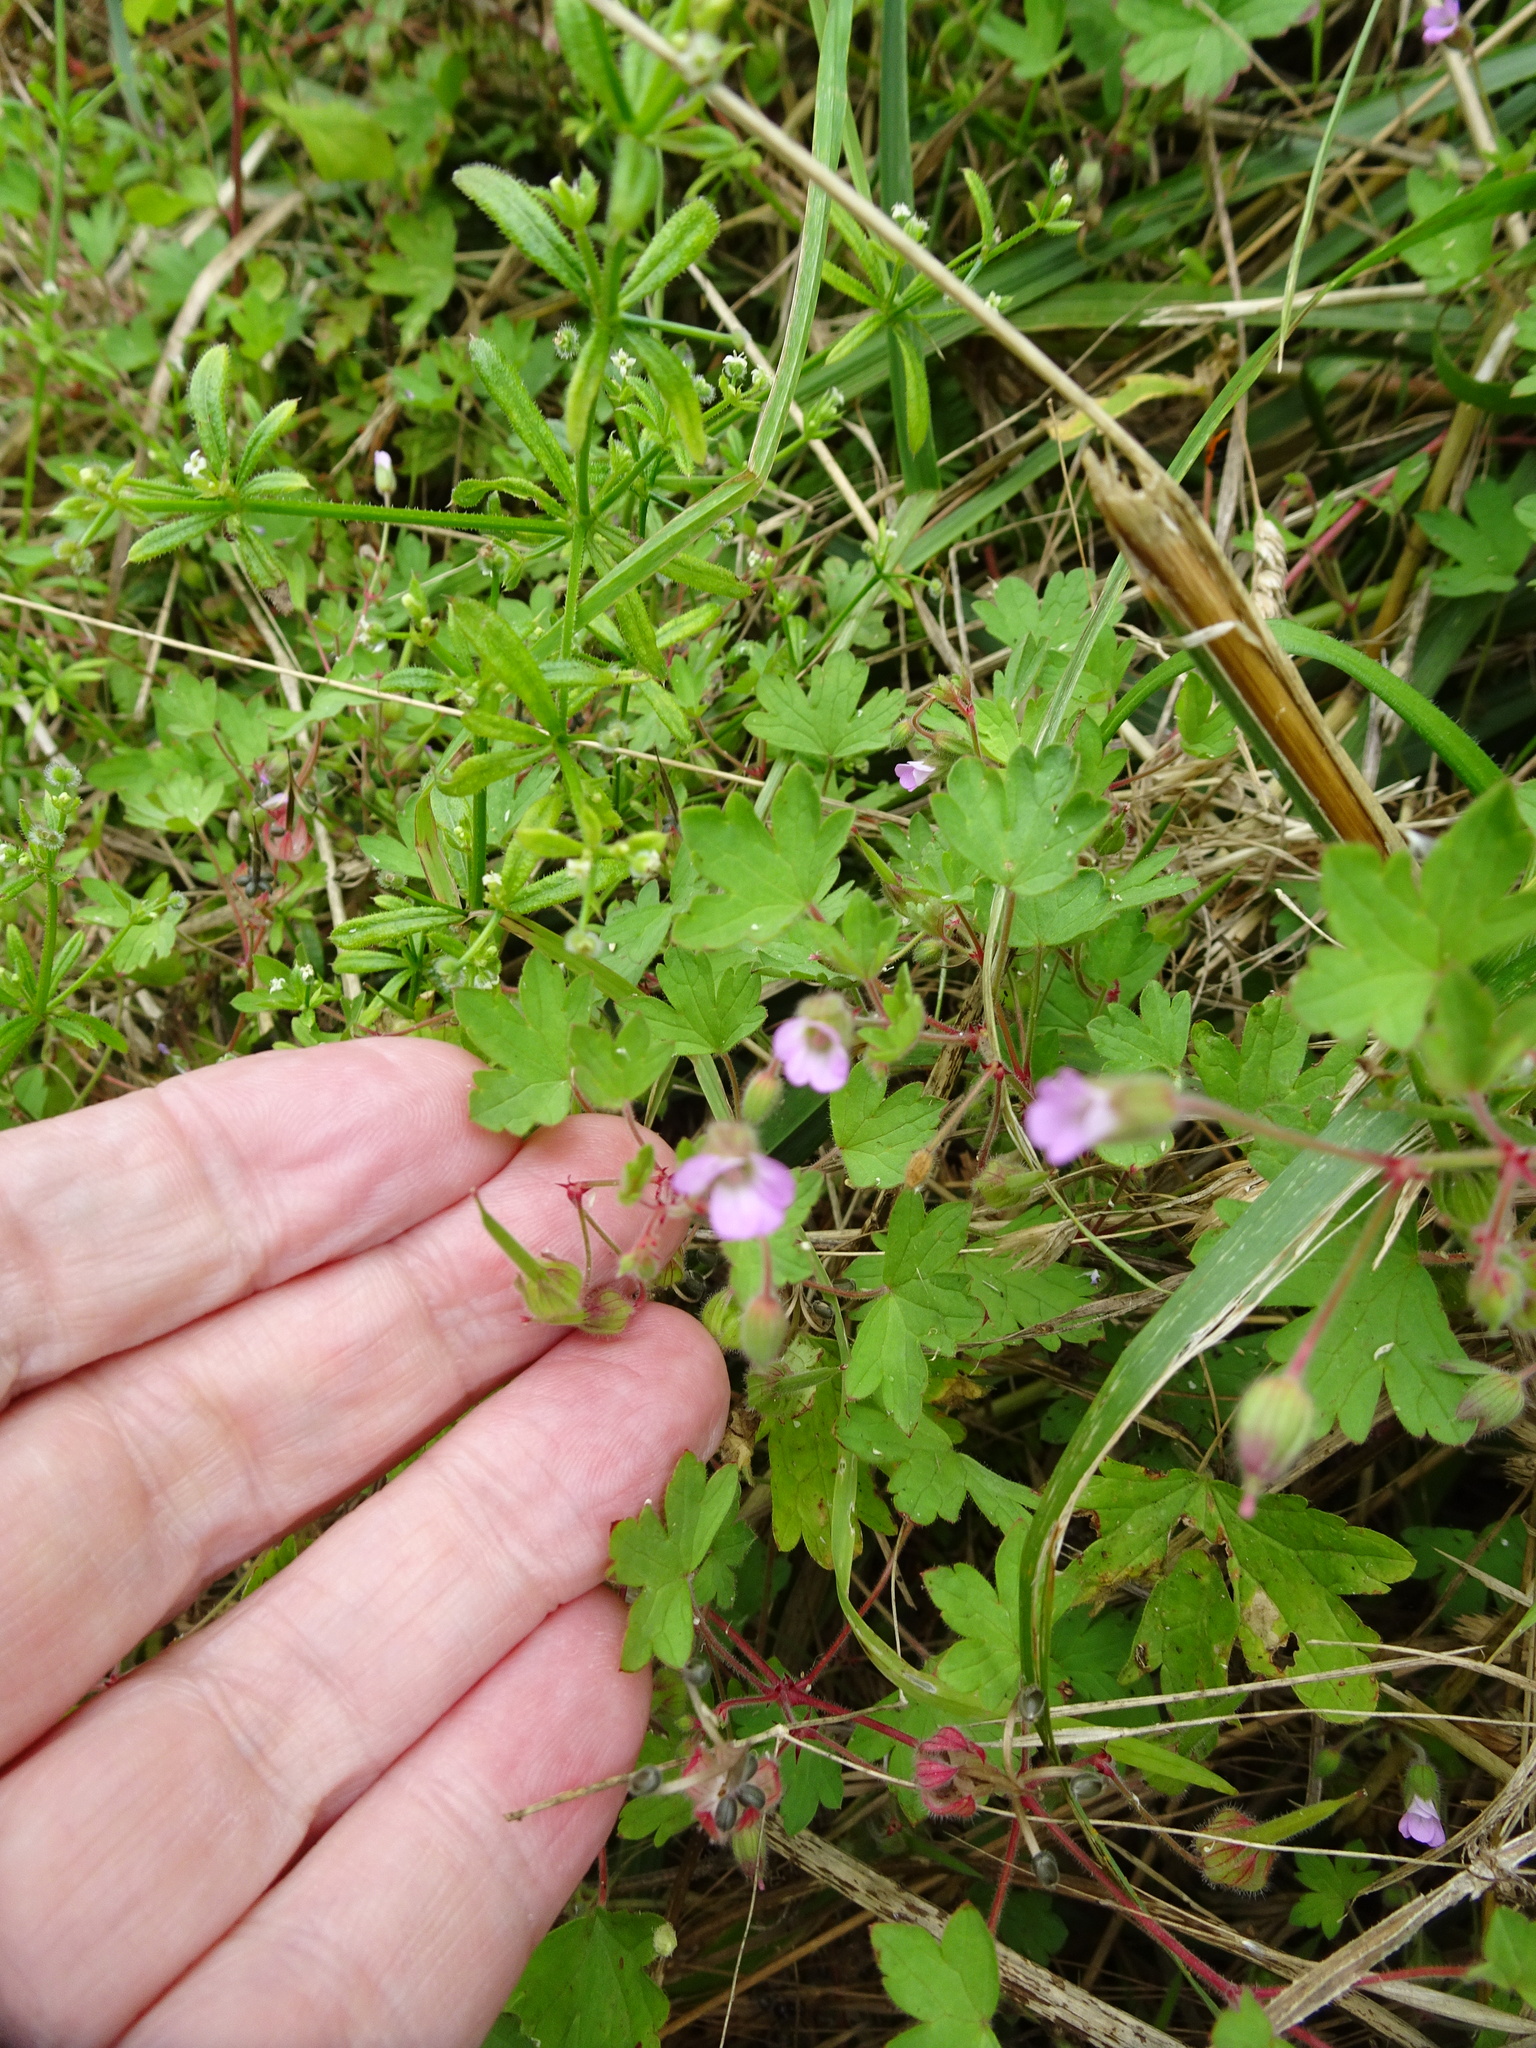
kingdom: Plantae
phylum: Tracheophyta
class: Magnoliopsida
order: Geraniales
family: Geraniaceae
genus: Geranium
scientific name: Geranium rotundifolium
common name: Round-leaved crane's-bill
